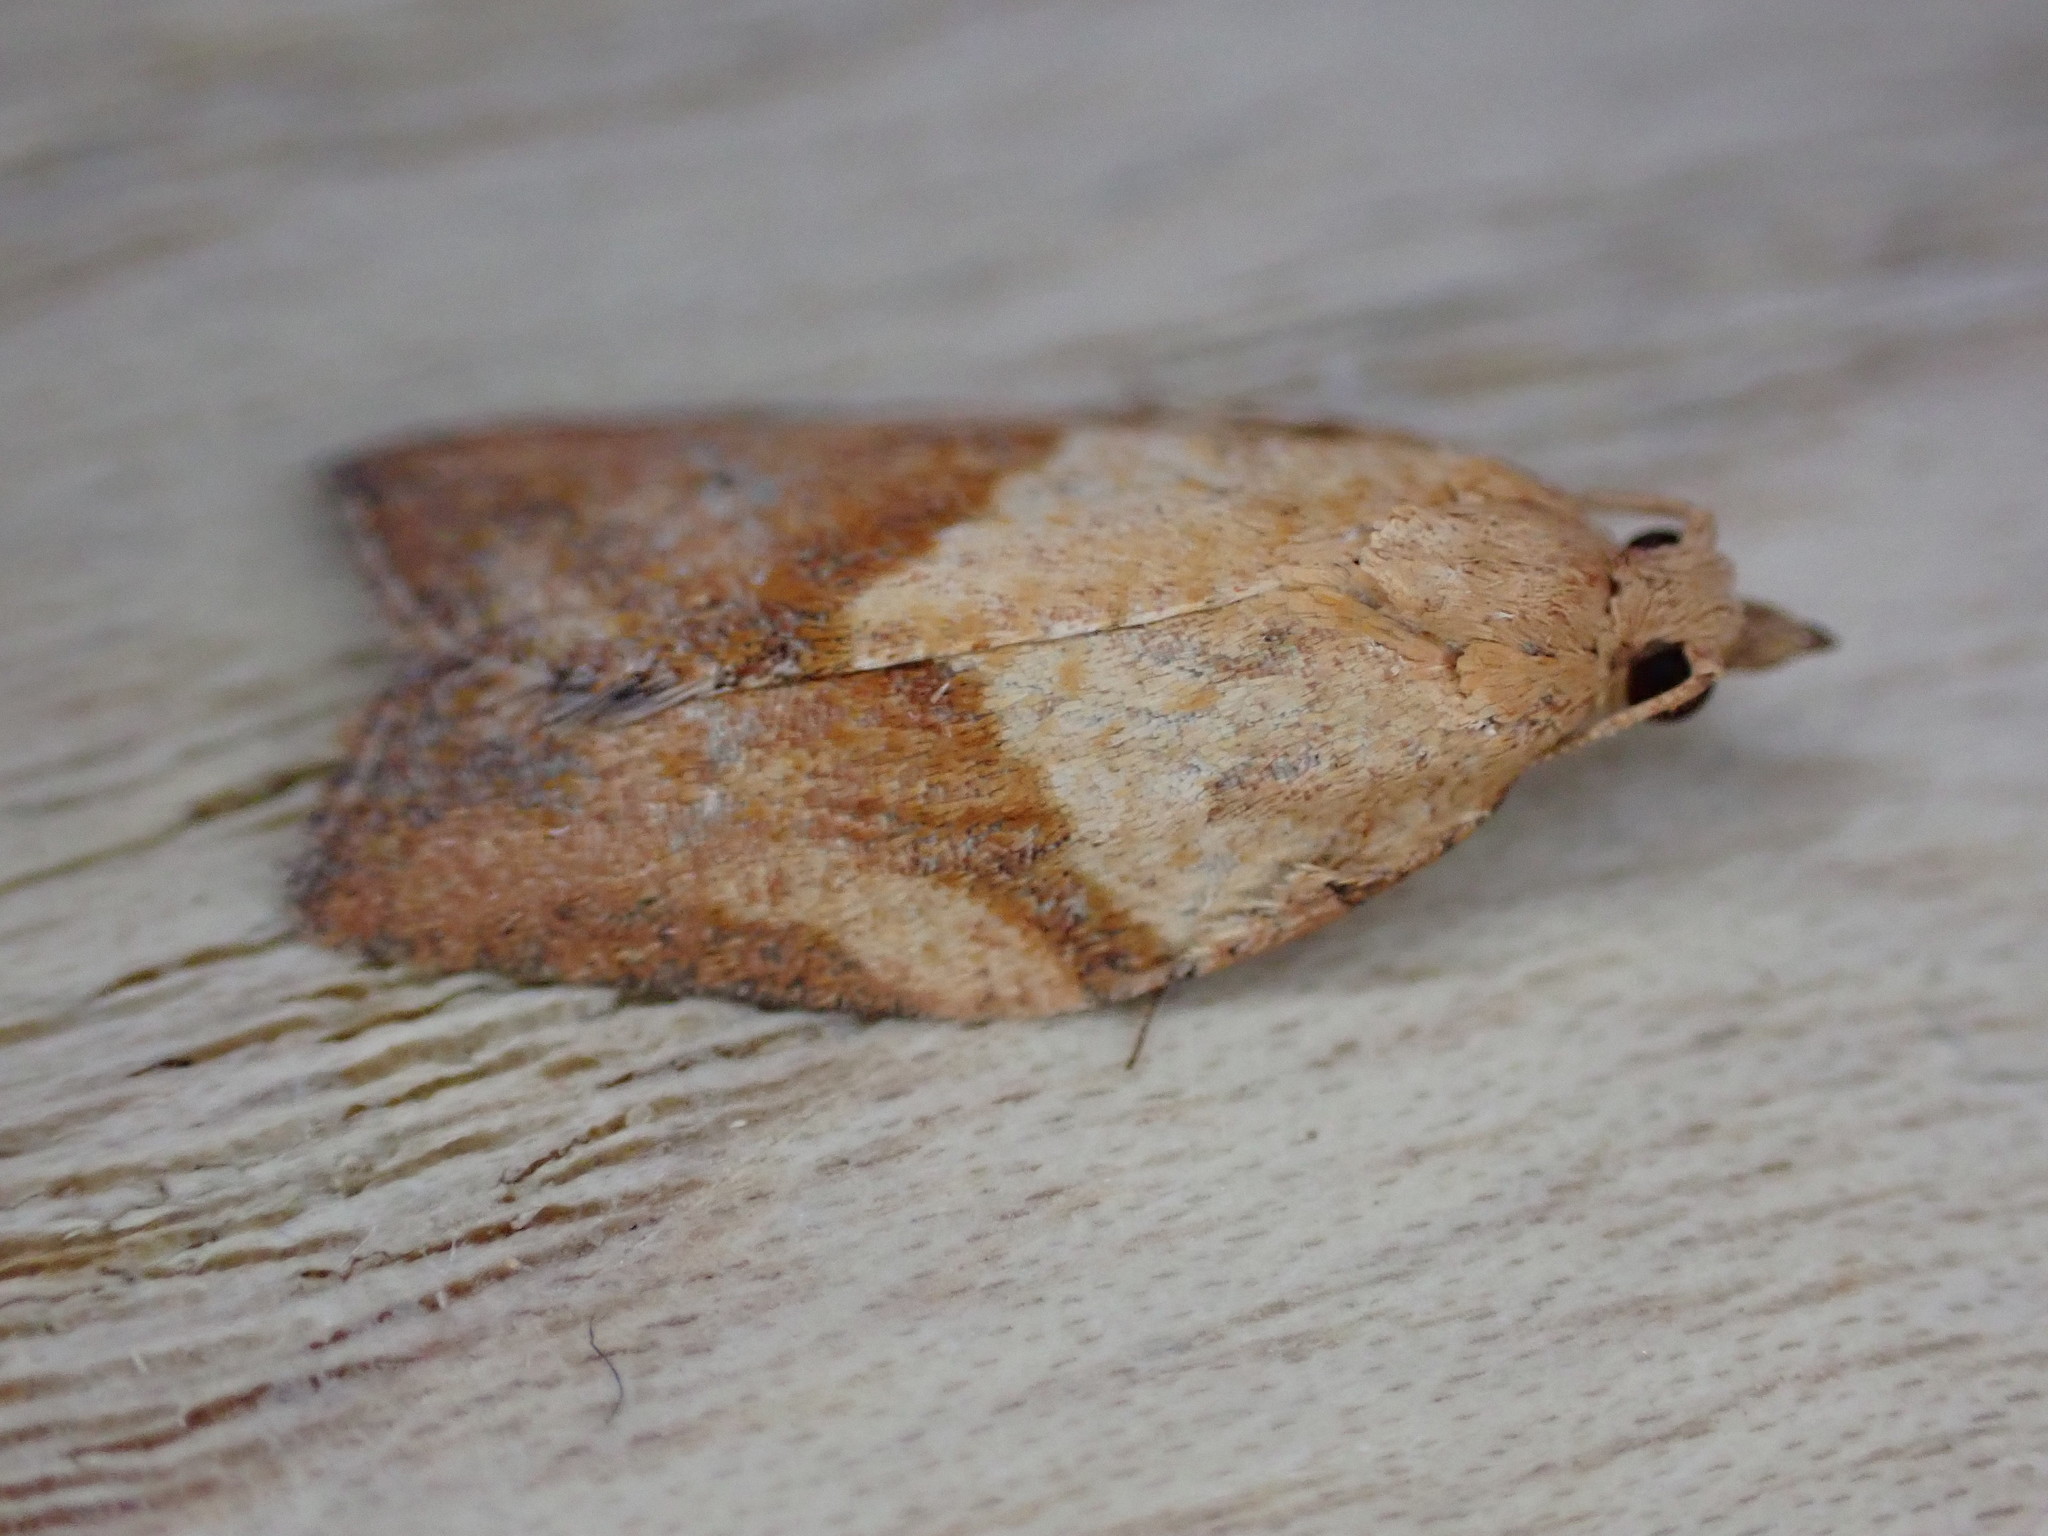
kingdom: Animalia
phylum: Arthropoda
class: Insecta
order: Lepidoptera
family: Tortricidae
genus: Epiphyas
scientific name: Epiphyas postvittana
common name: Light brown apple moth
